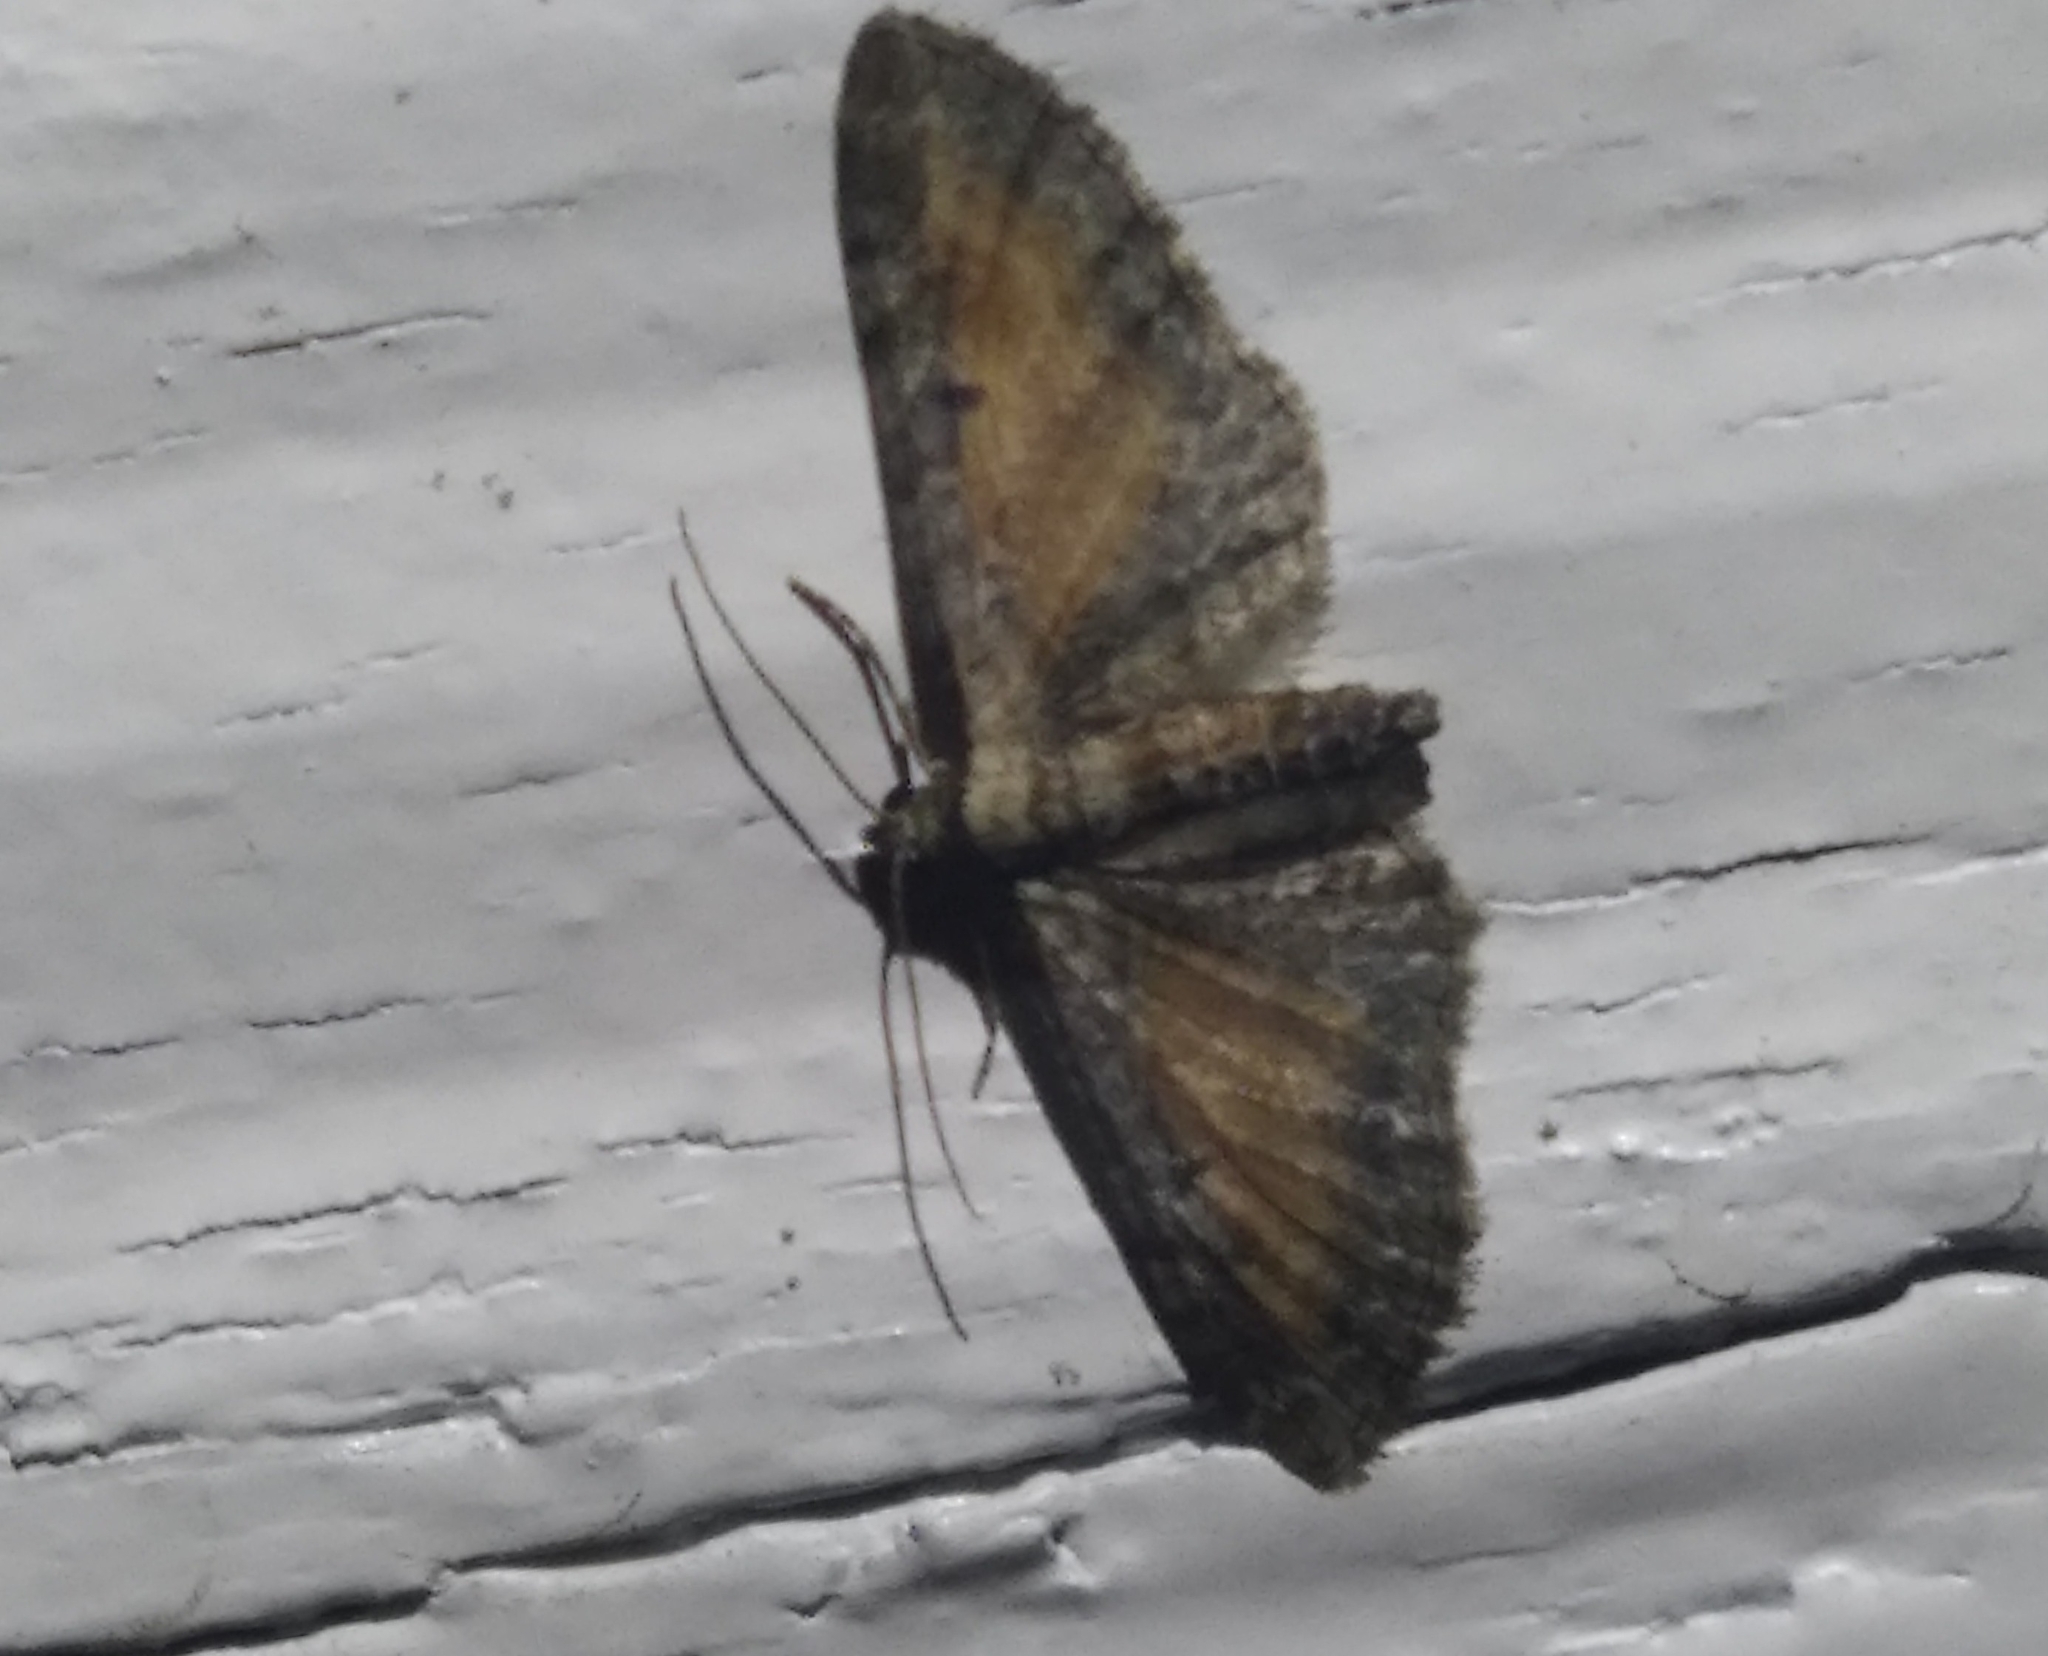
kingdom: Animalia
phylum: Arthropoda
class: Insecta
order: Lepidoptera
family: Geometridae
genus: Eupithecia
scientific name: Eupithecia icterata
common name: Tawny speckled pug
